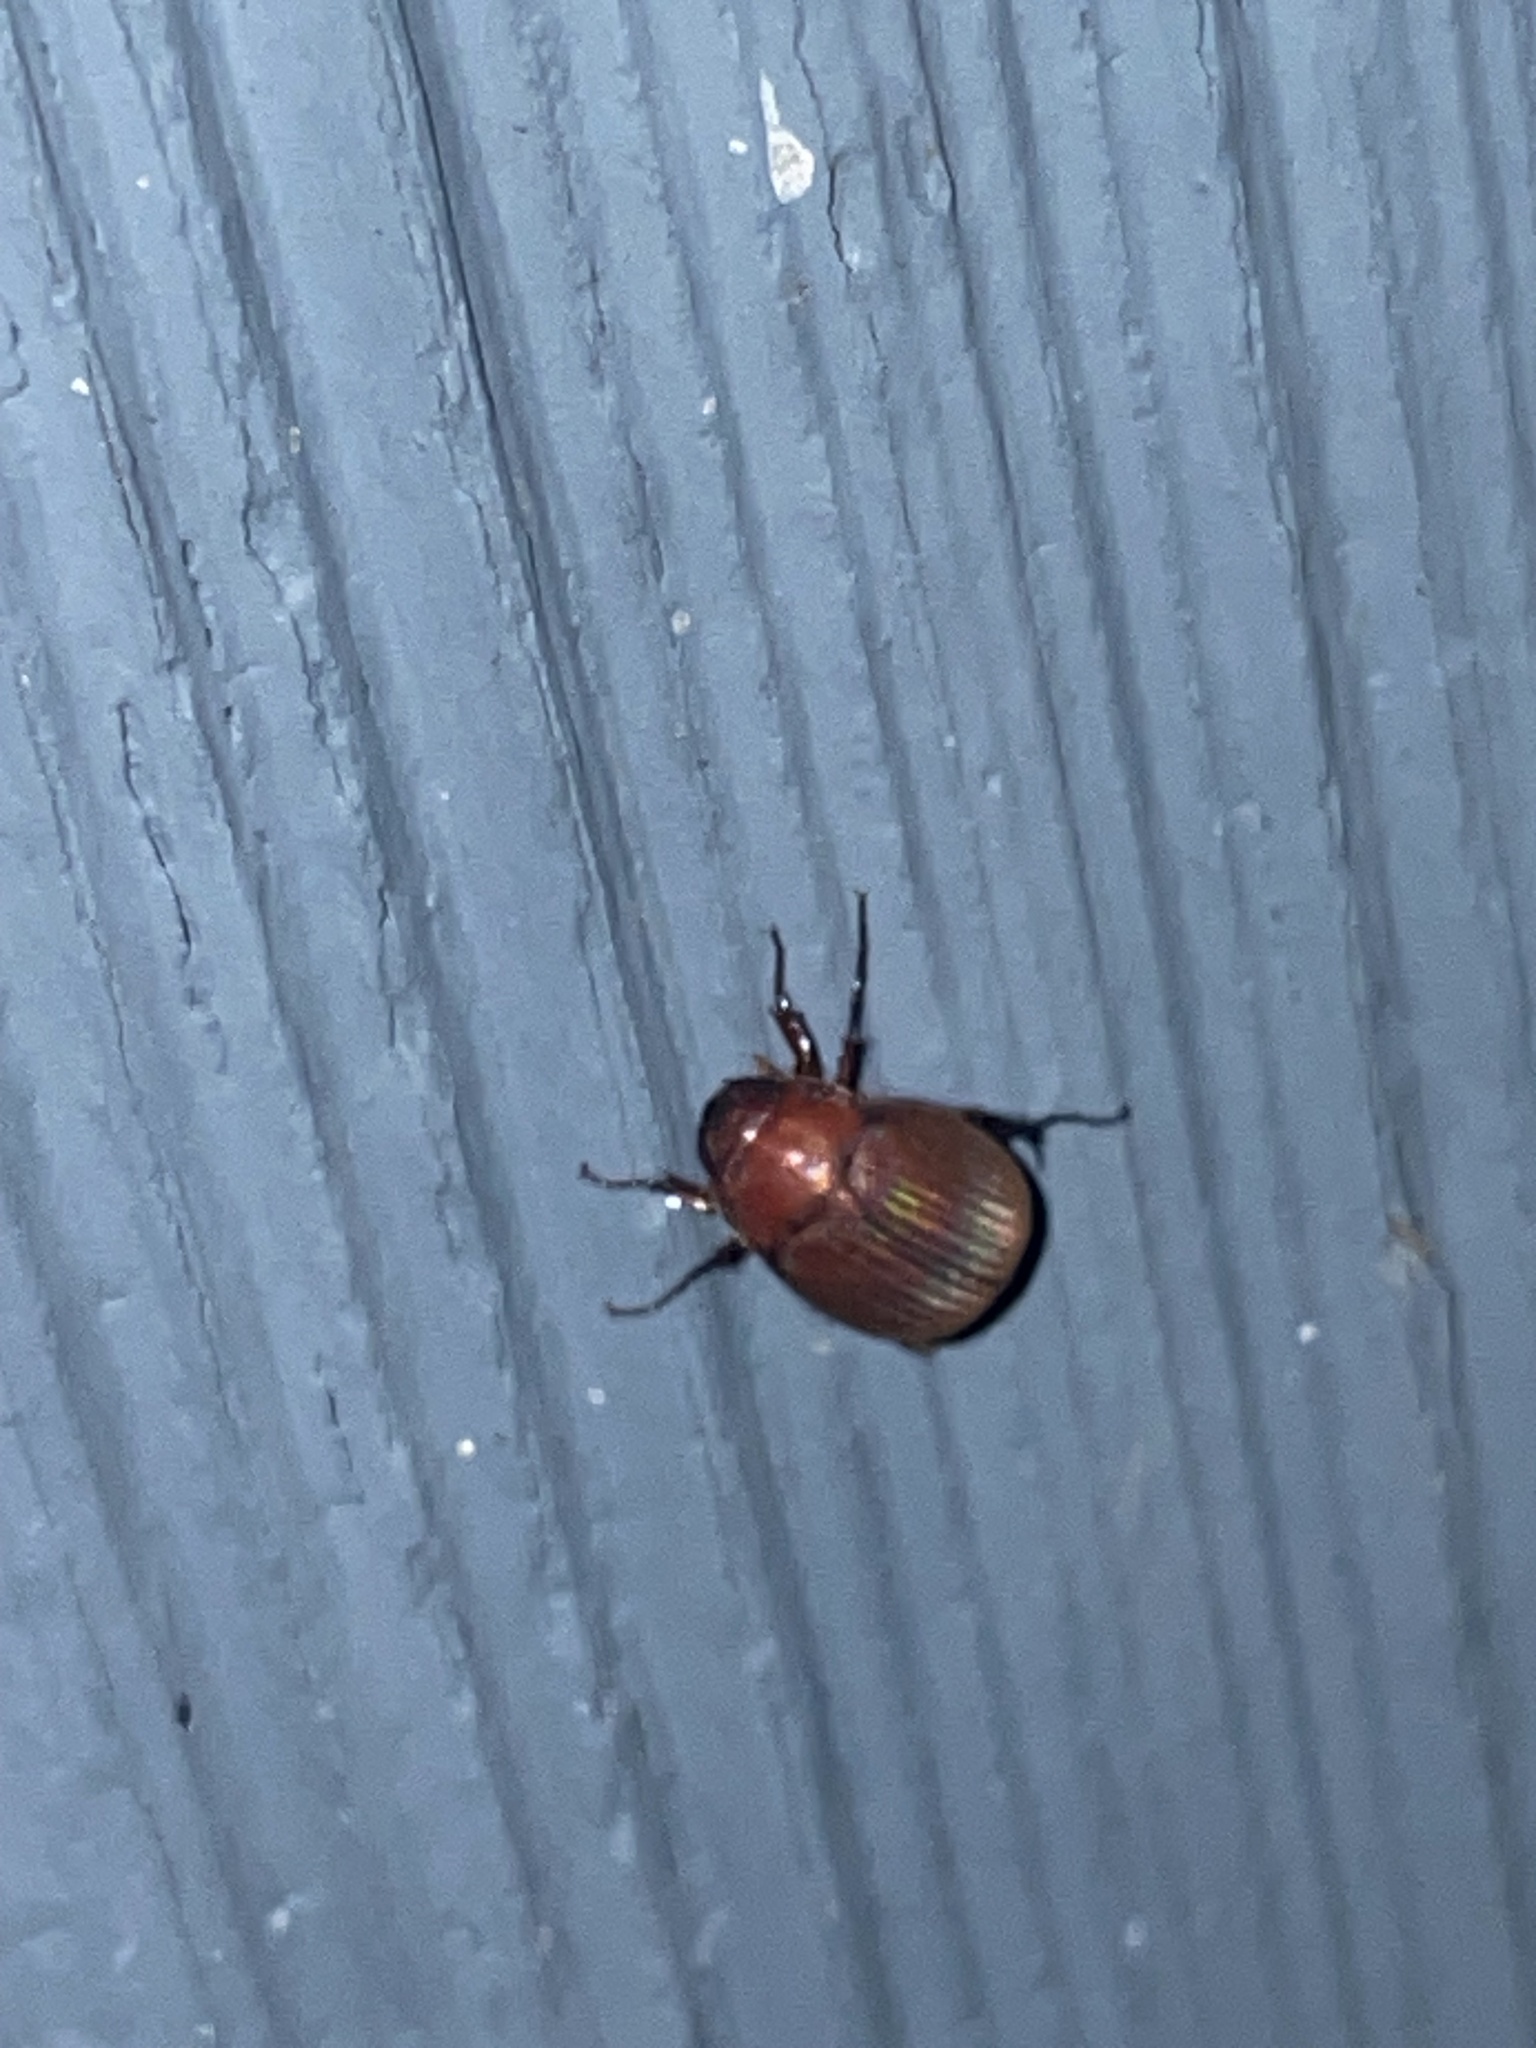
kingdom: Animalia
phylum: Arthropoda
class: Insecta
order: Coleoptera
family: Scarabaeidae
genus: Maladera
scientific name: Maladera formosae
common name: Asiatic garden beetle
